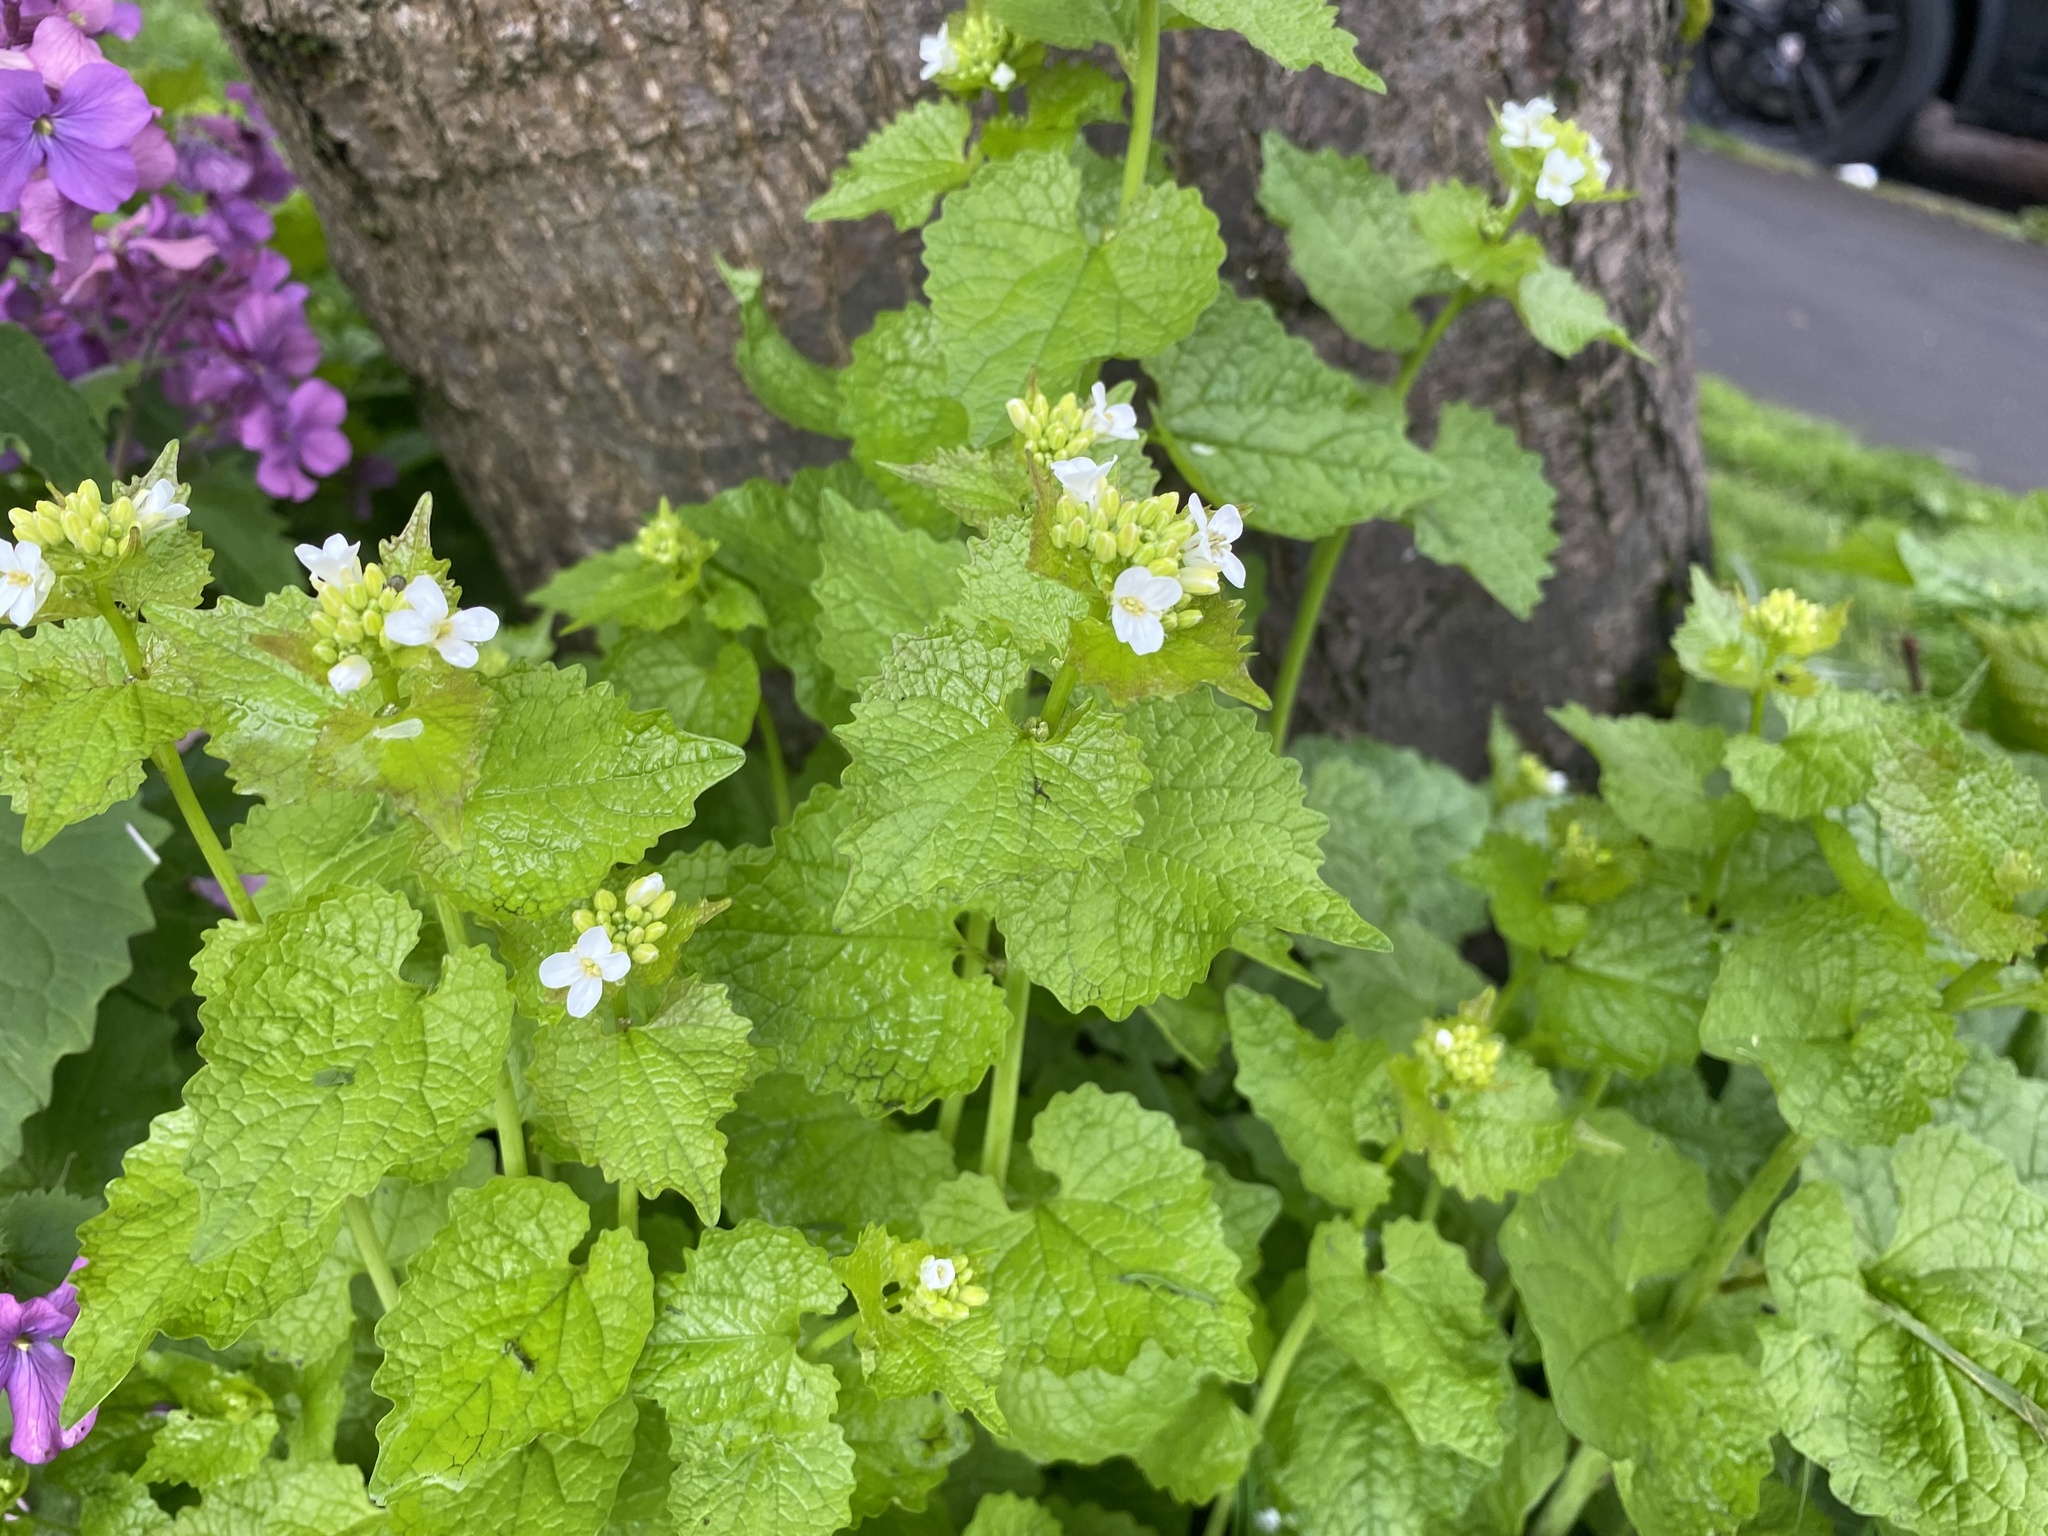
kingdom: Plantae
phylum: Tracheophyta
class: Magnoliopsida
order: Brassicales
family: Brassicaceae
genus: Alliaria
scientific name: Alliaria petiolata
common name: Garlic mustard
